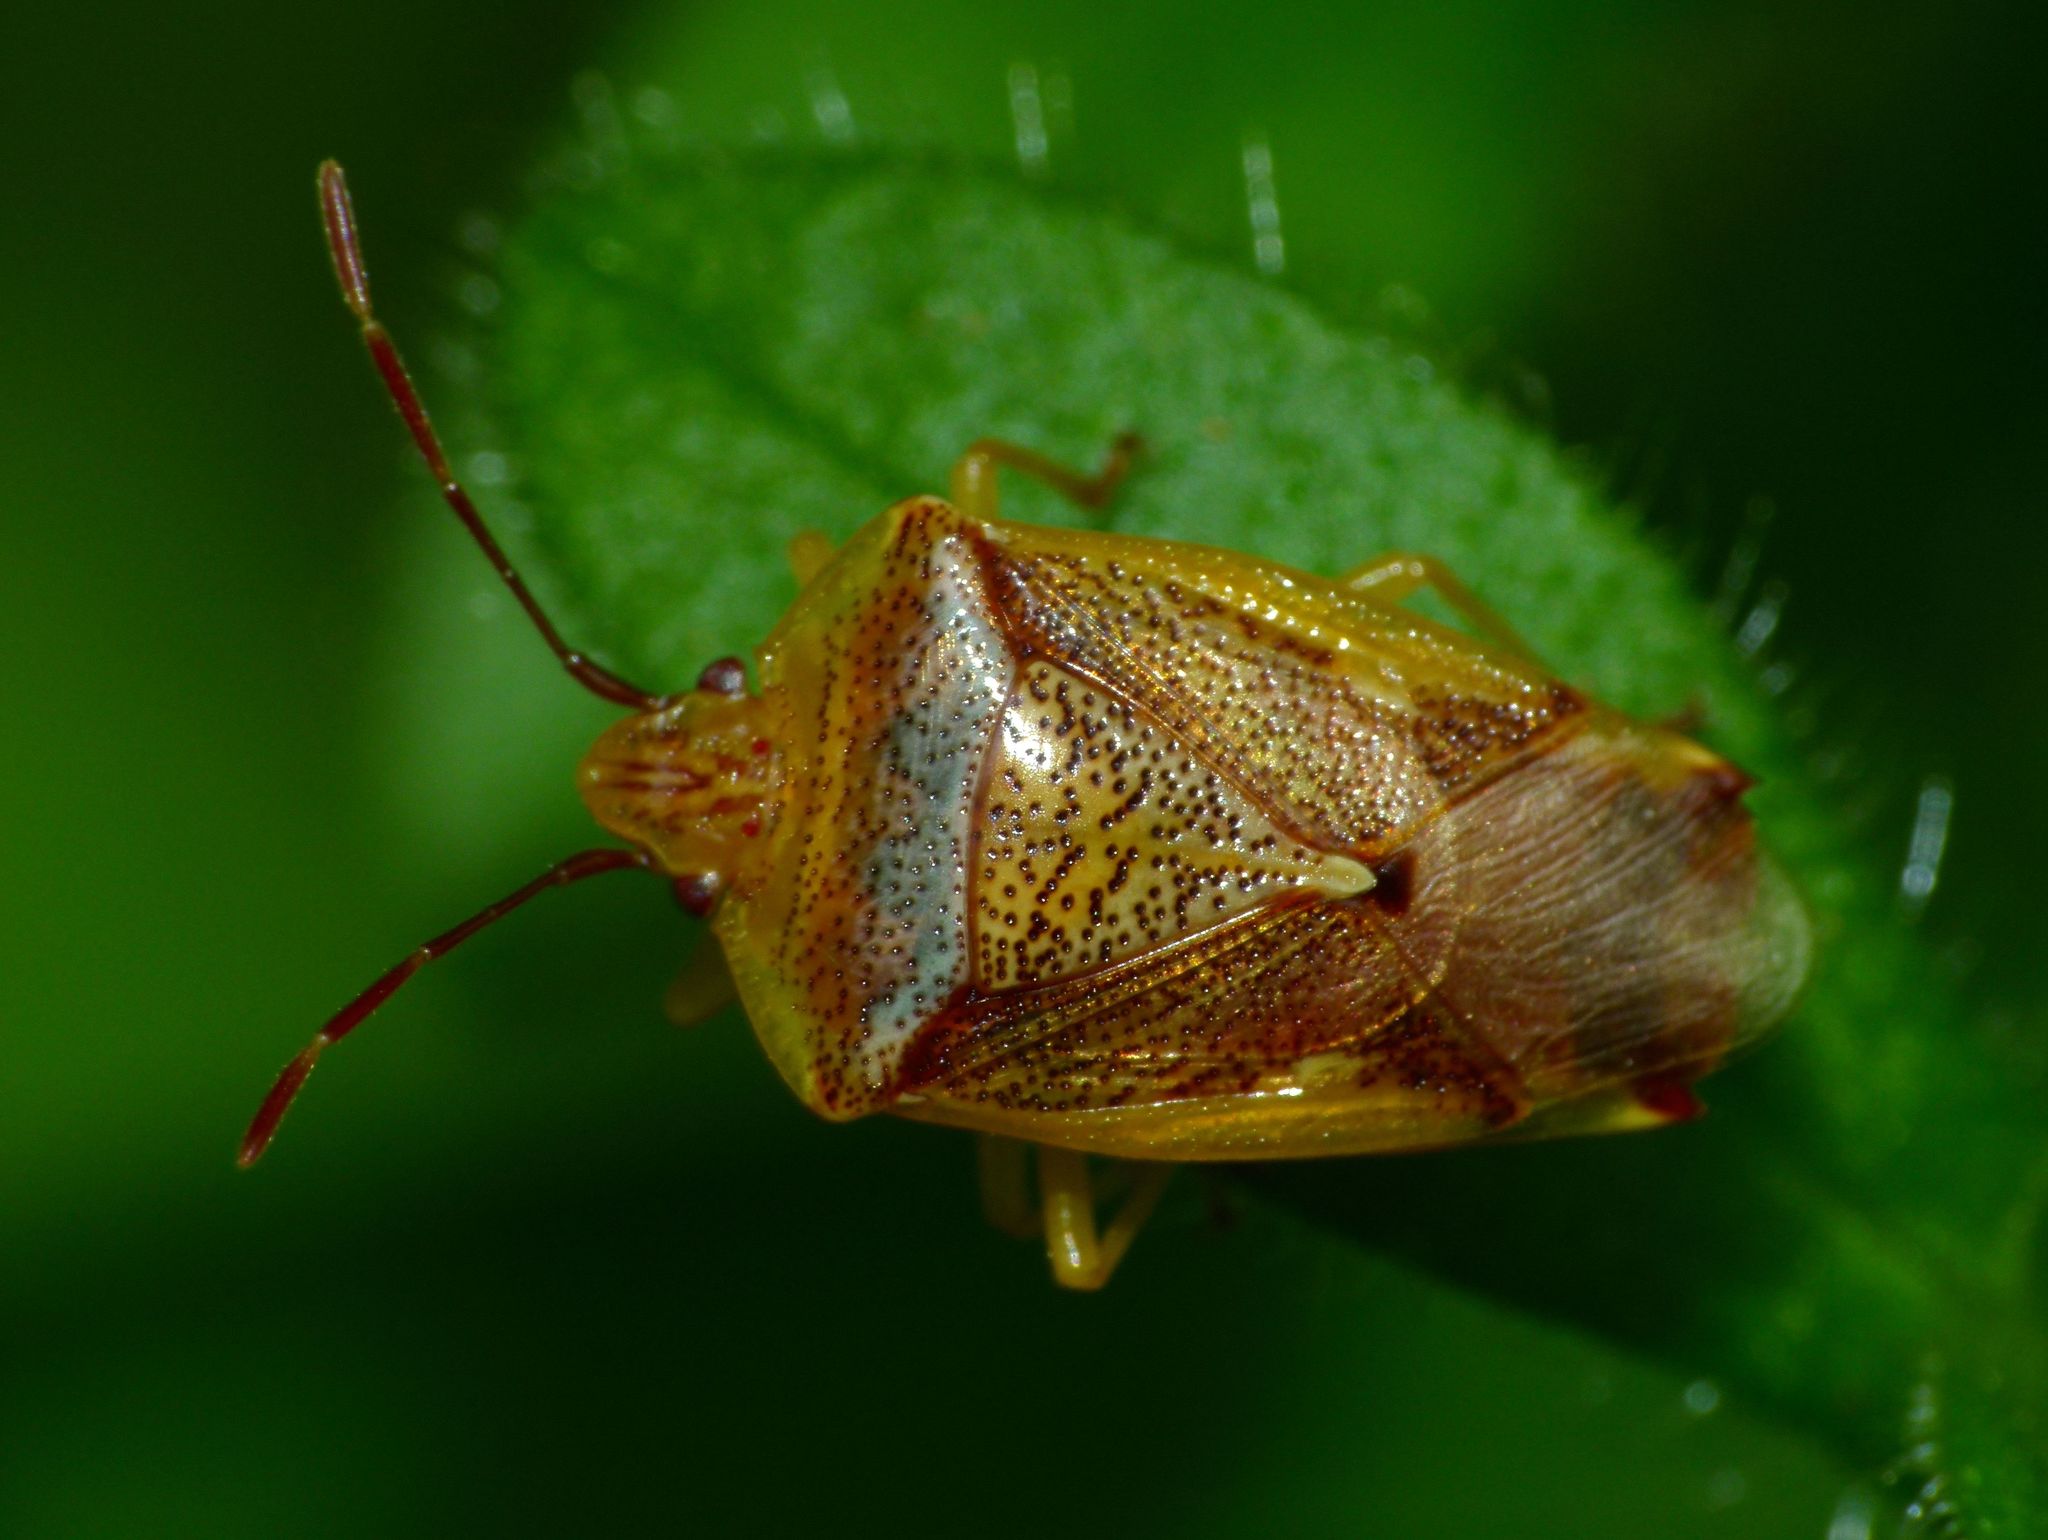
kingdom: Animalia
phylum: Arthropoda
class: Insecta
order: Hemiptera
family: Acanthosomatidae
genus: Oncacontias
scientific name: Oncacontias vittatus
